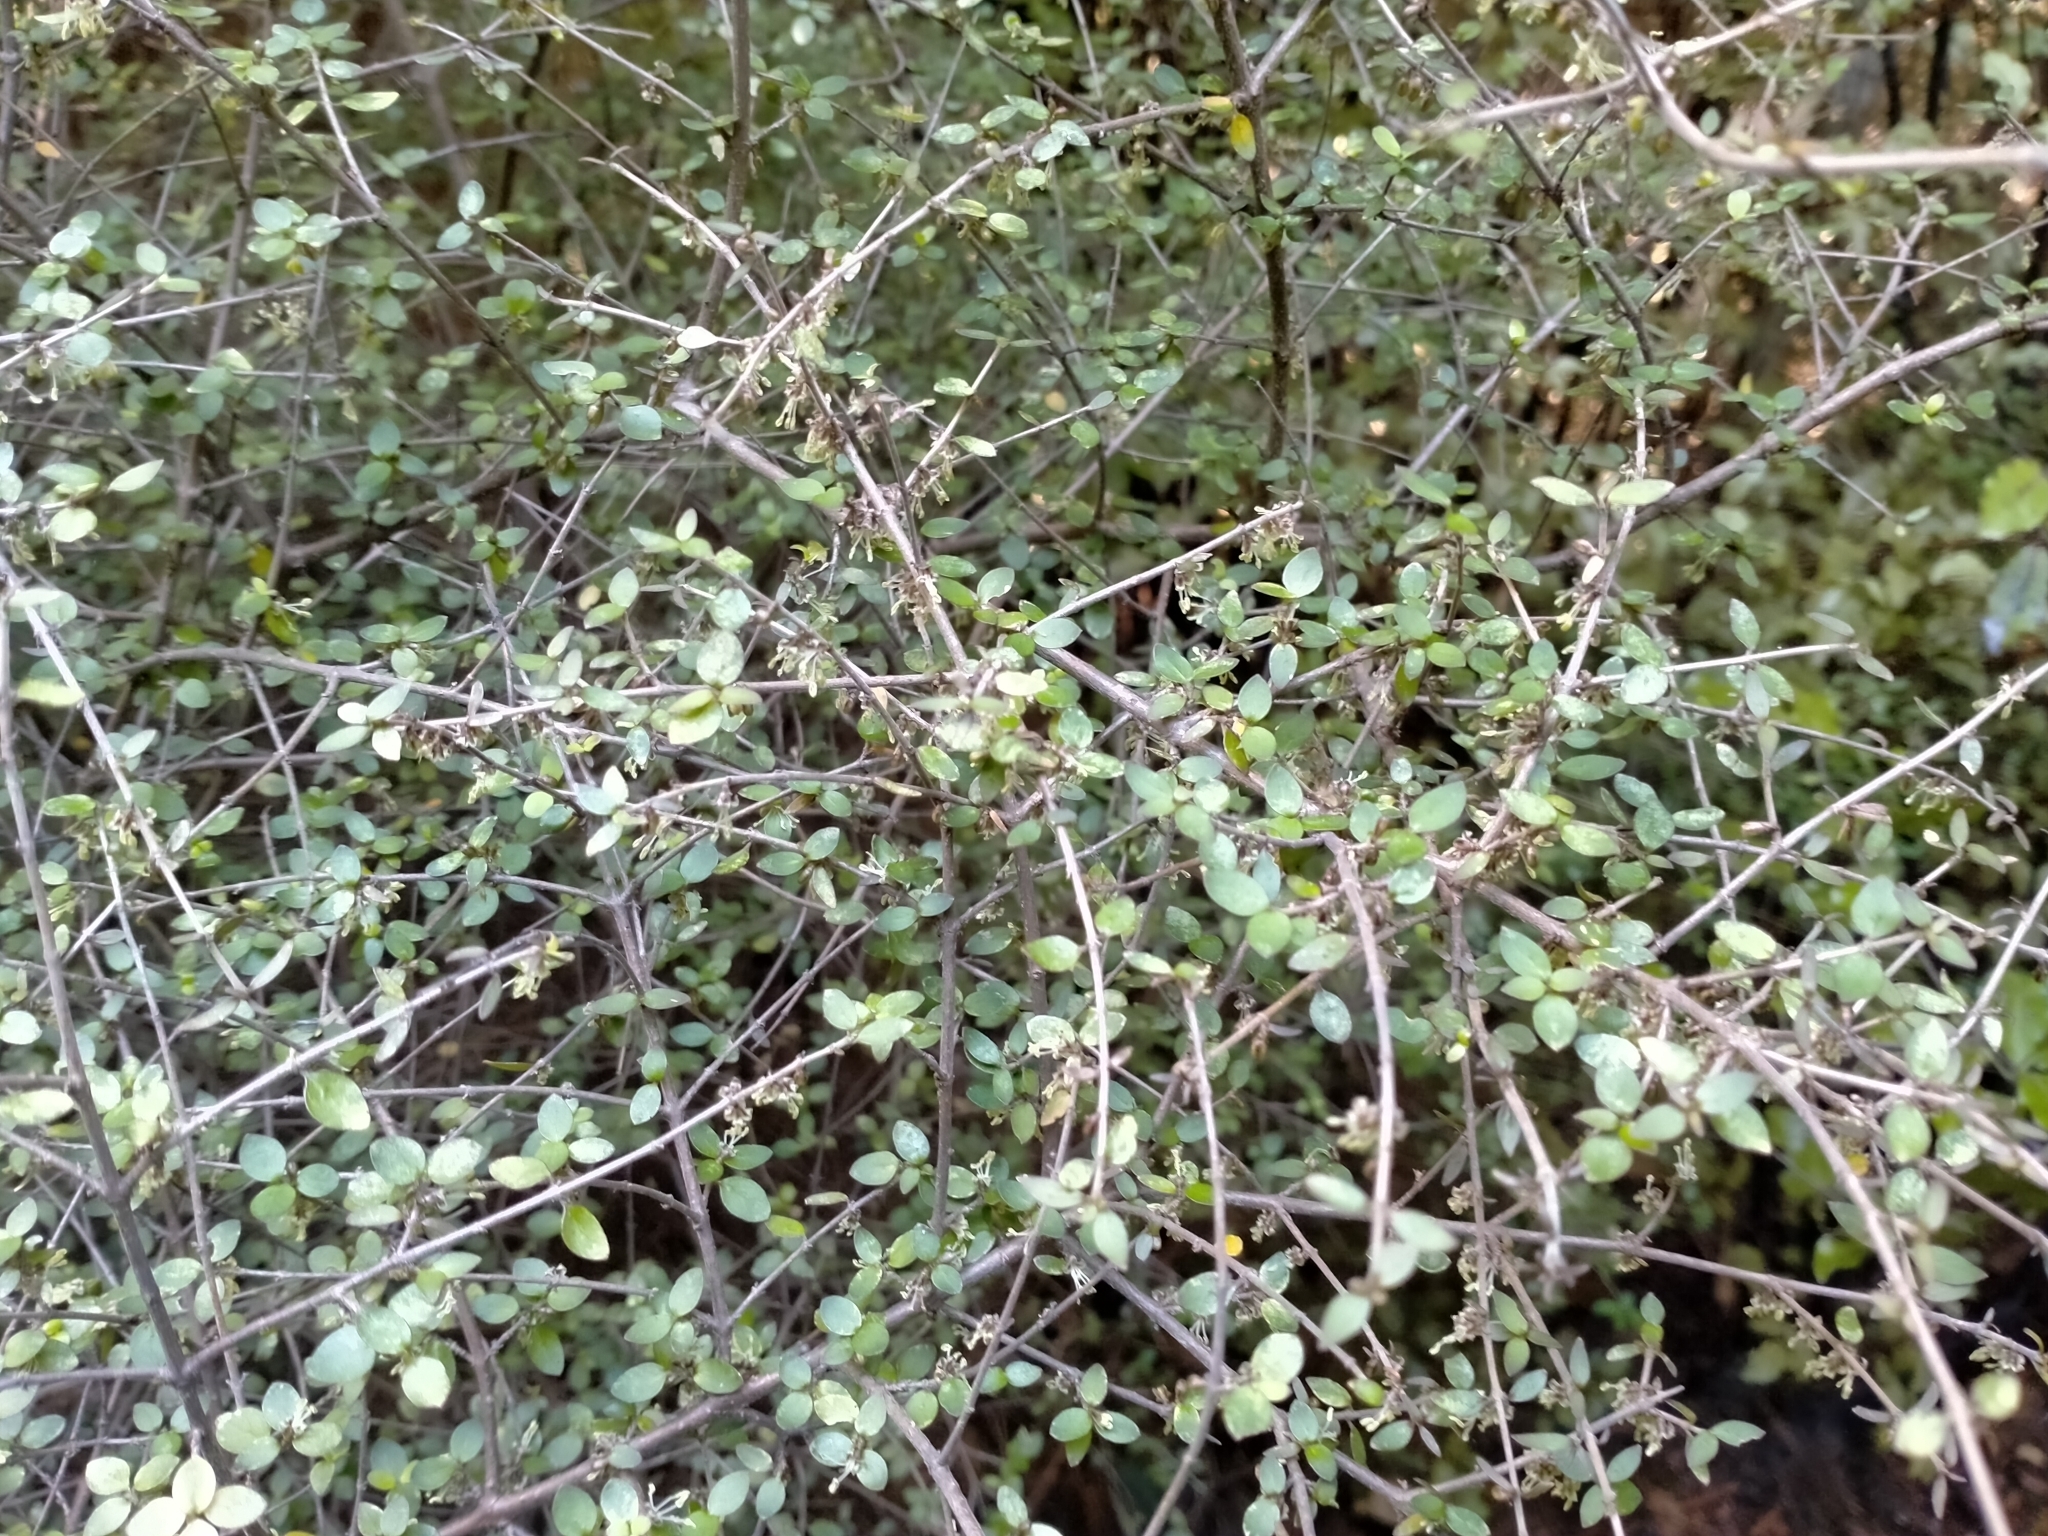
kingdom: Plantae
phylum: Tracheophyta
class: Magnoliopsida
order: Gentianales
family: Rubiaceae
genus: Coprosma
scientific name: Coprosma rhamnoides
